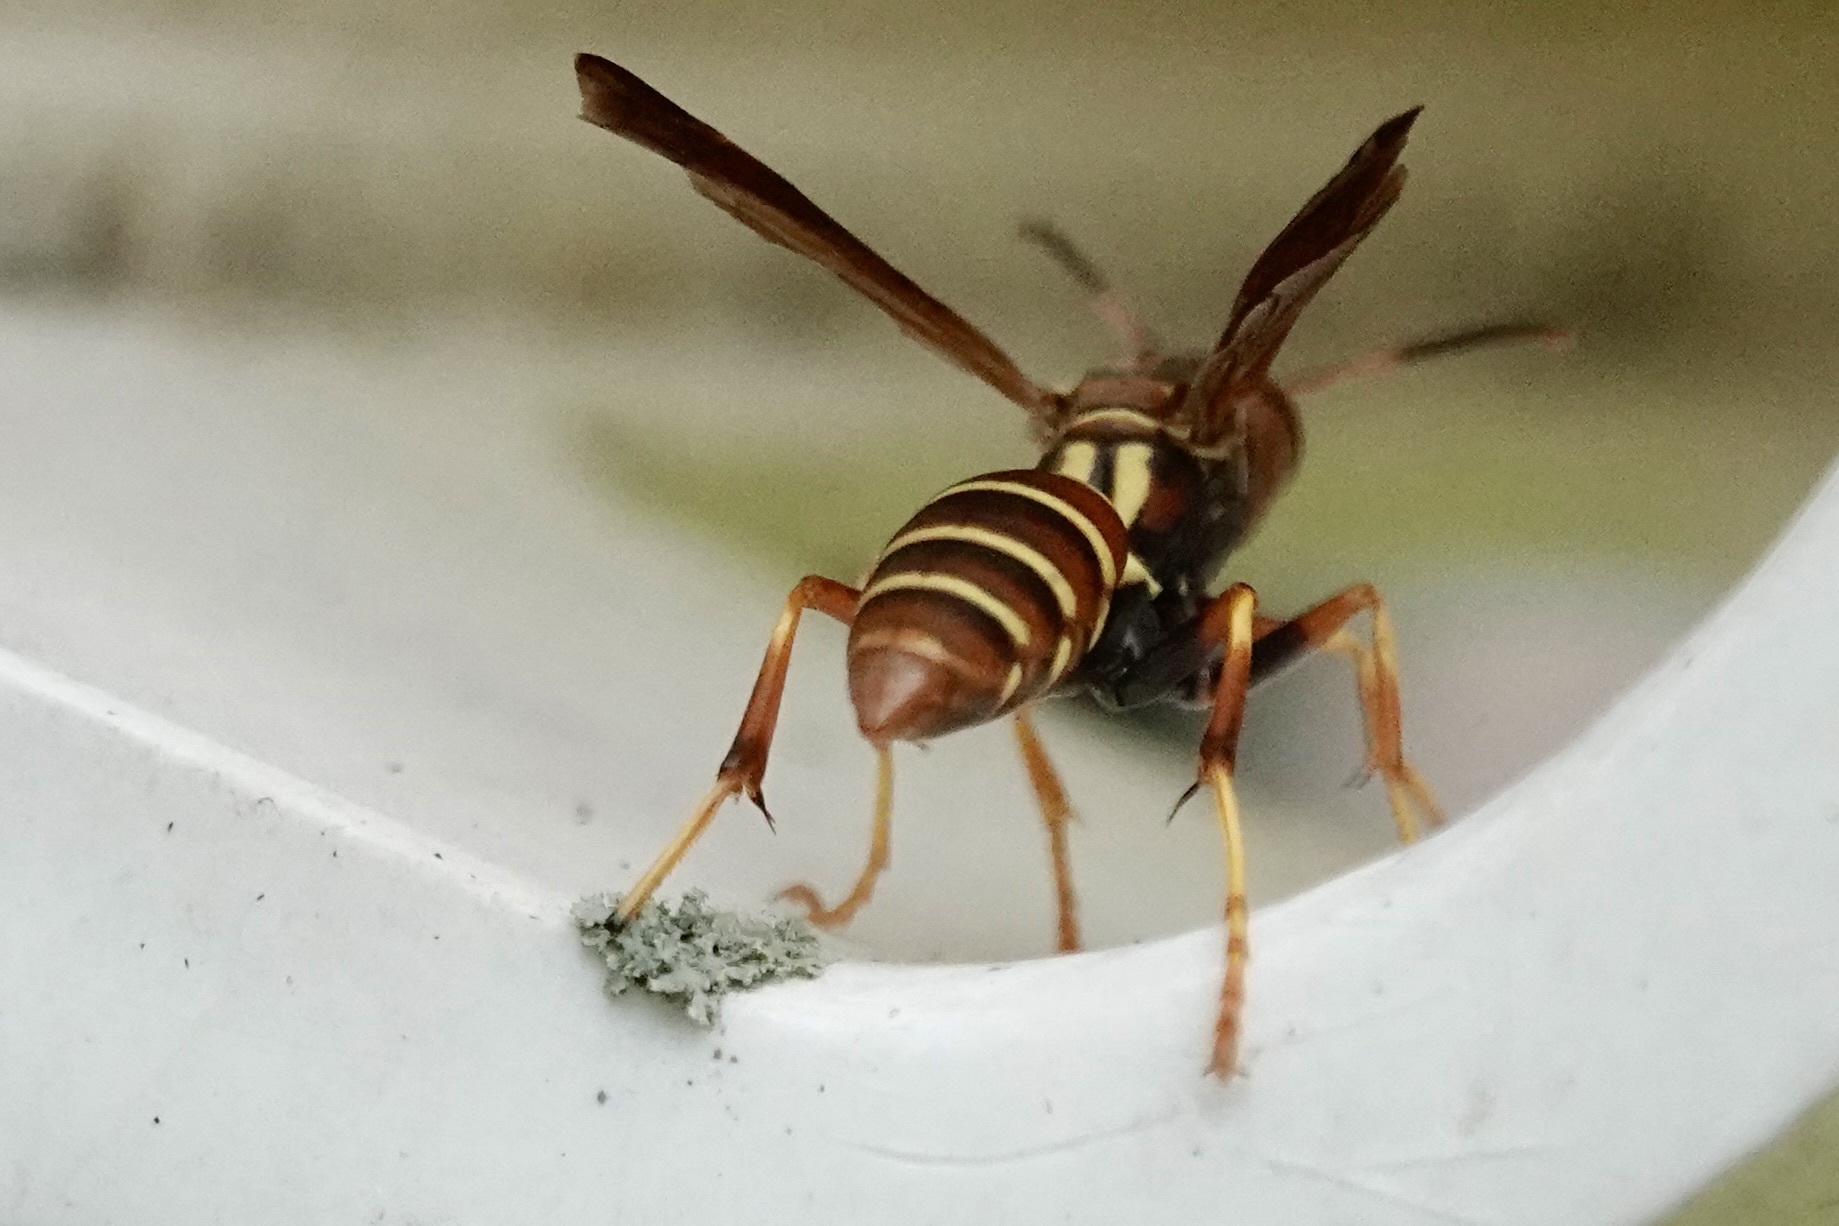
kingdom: Animalia
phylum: Arthropoda
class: Insecta
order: Hymenoptera
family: Eumenidae
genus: Polistes
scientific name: Polistes dorsalis
